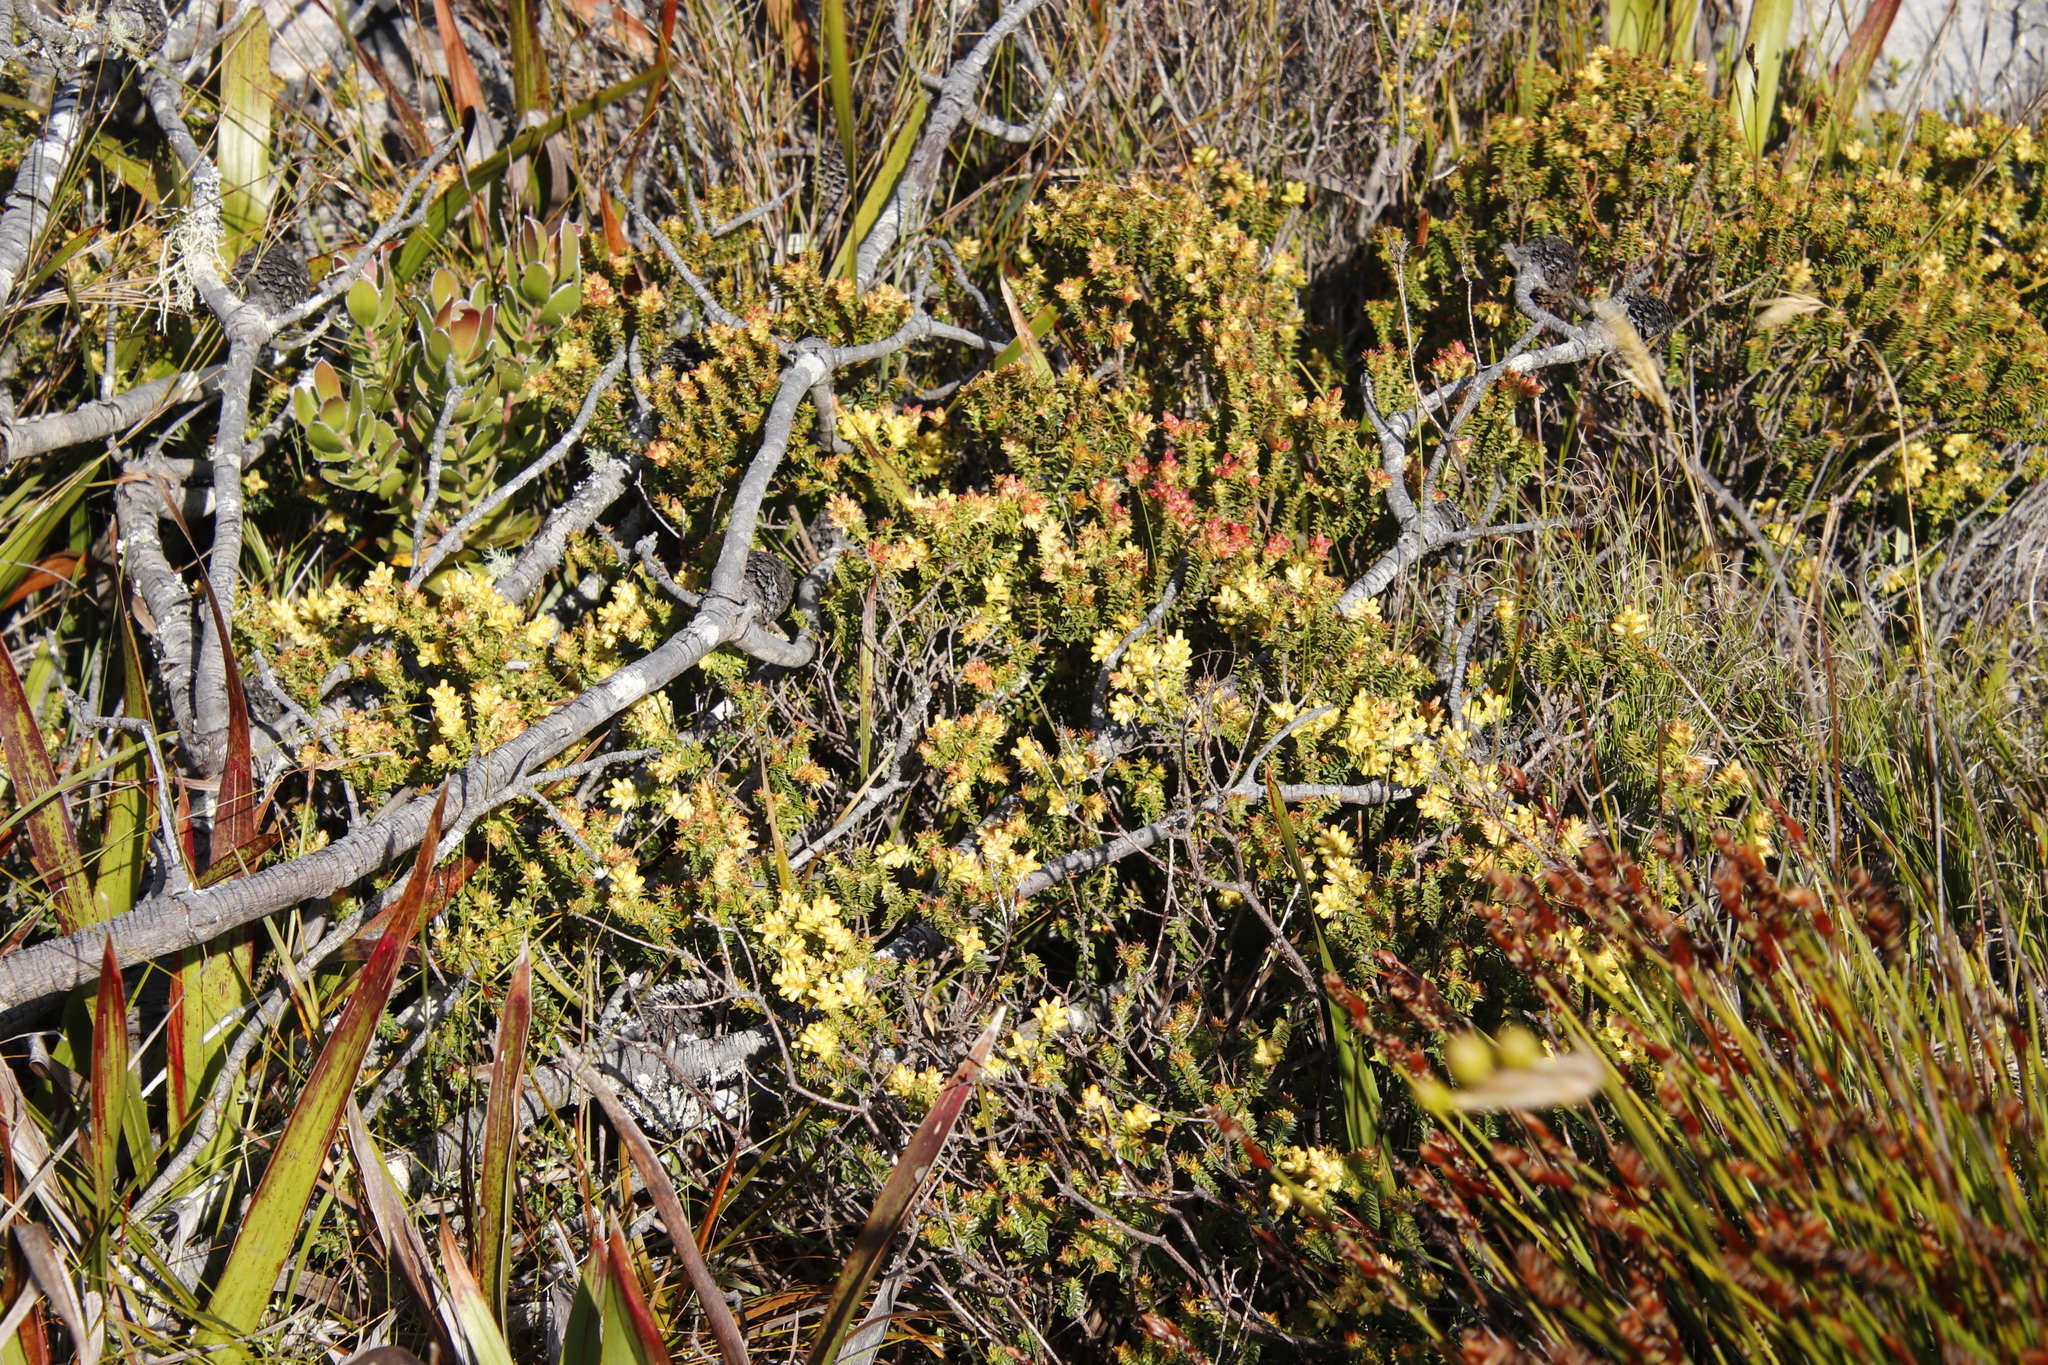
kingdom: Plantae
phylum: Tracheophyta
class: Magnoliopsida
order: Myrtales
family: Penaeaceae
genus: Penaea
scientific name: Penaea mucronata
